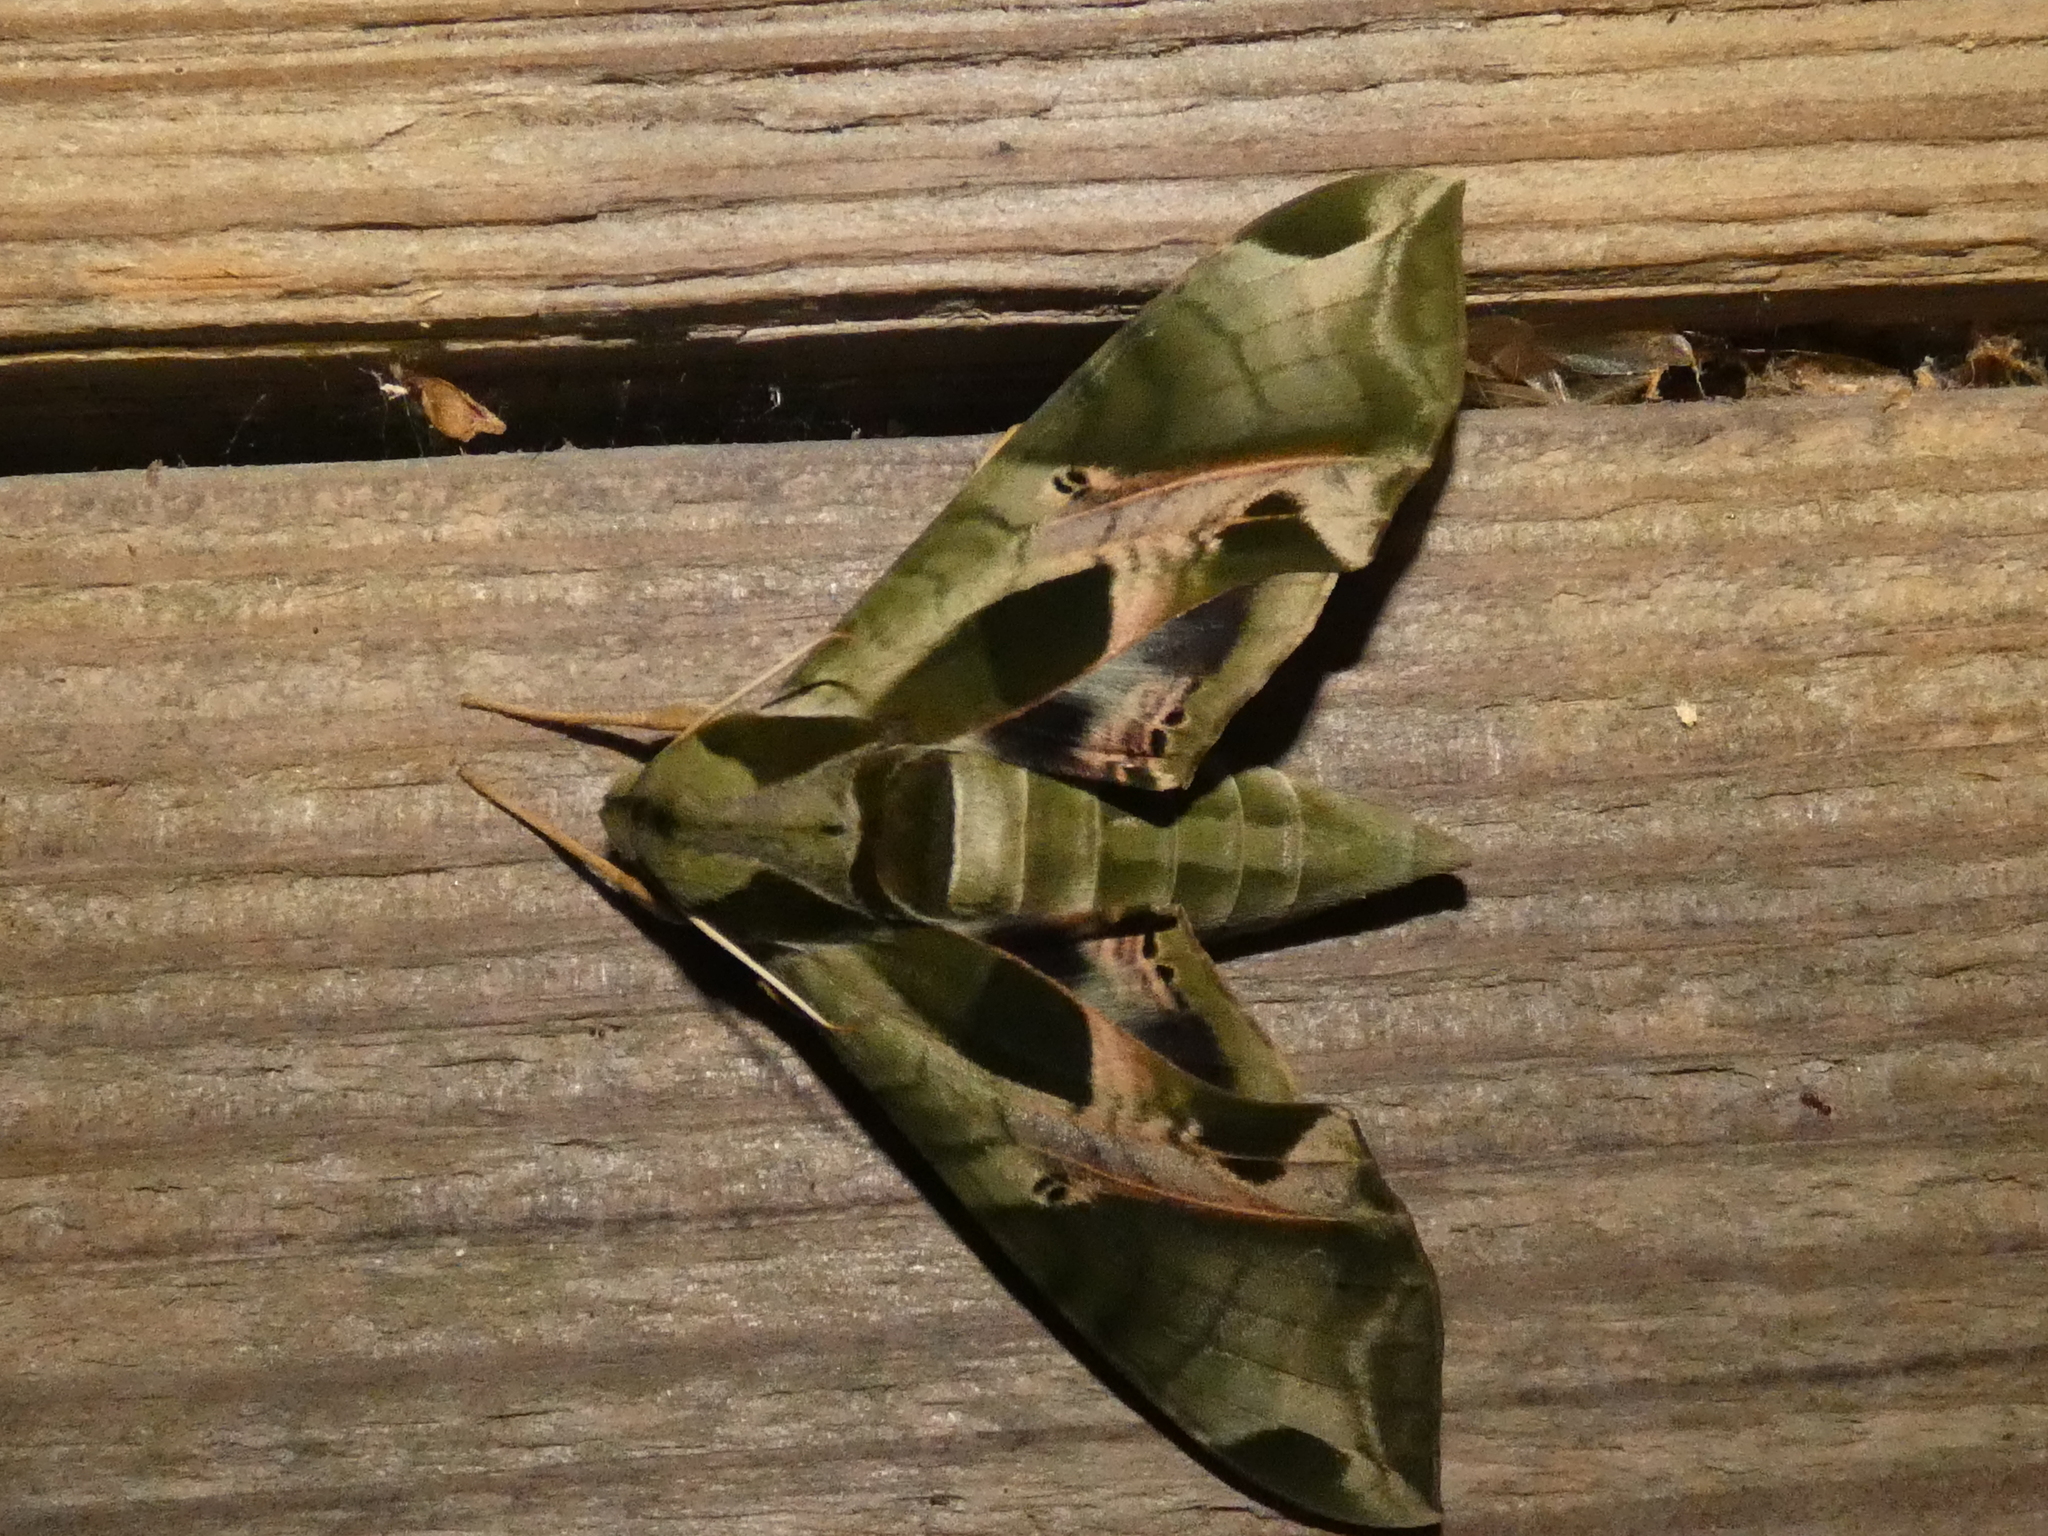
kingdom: Animalia
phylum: Arthropoda
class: Insecta
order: Lepidoptera
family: Sphingidae
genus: Eumorpha
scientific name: Eumorpha pandorus
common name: Pandora sphinx
